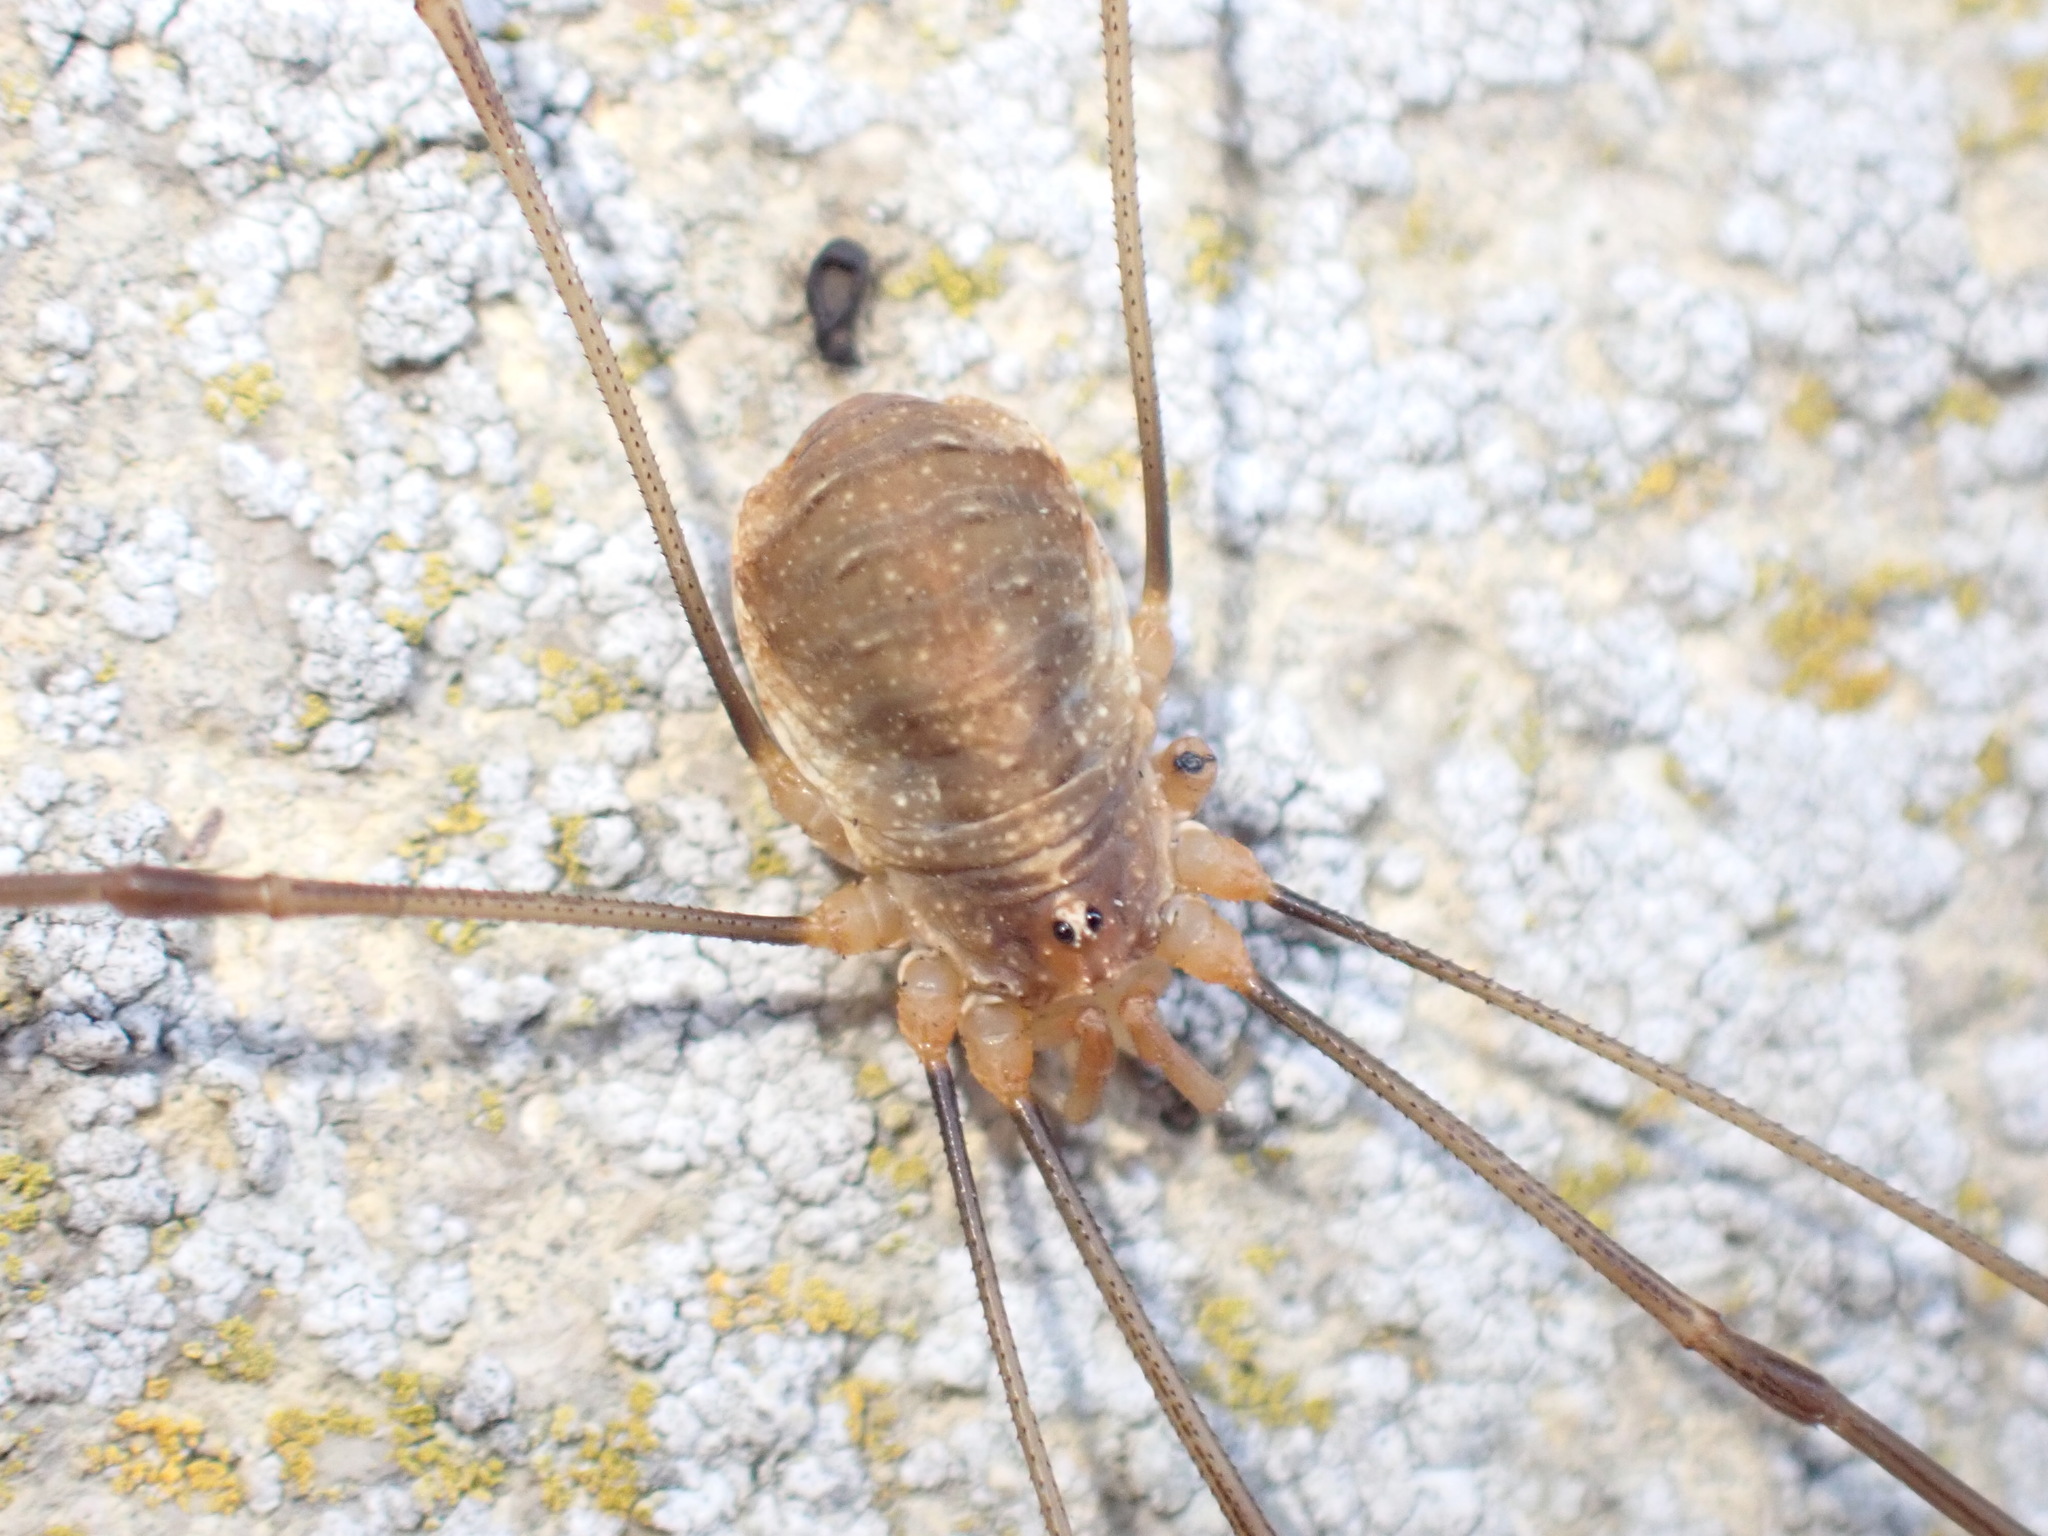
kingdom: Animalia
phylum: Arthropoda
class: Arachnida
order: Opiliones
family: Phalangiidae
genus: Opilio
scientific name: Opilio canestrinii
